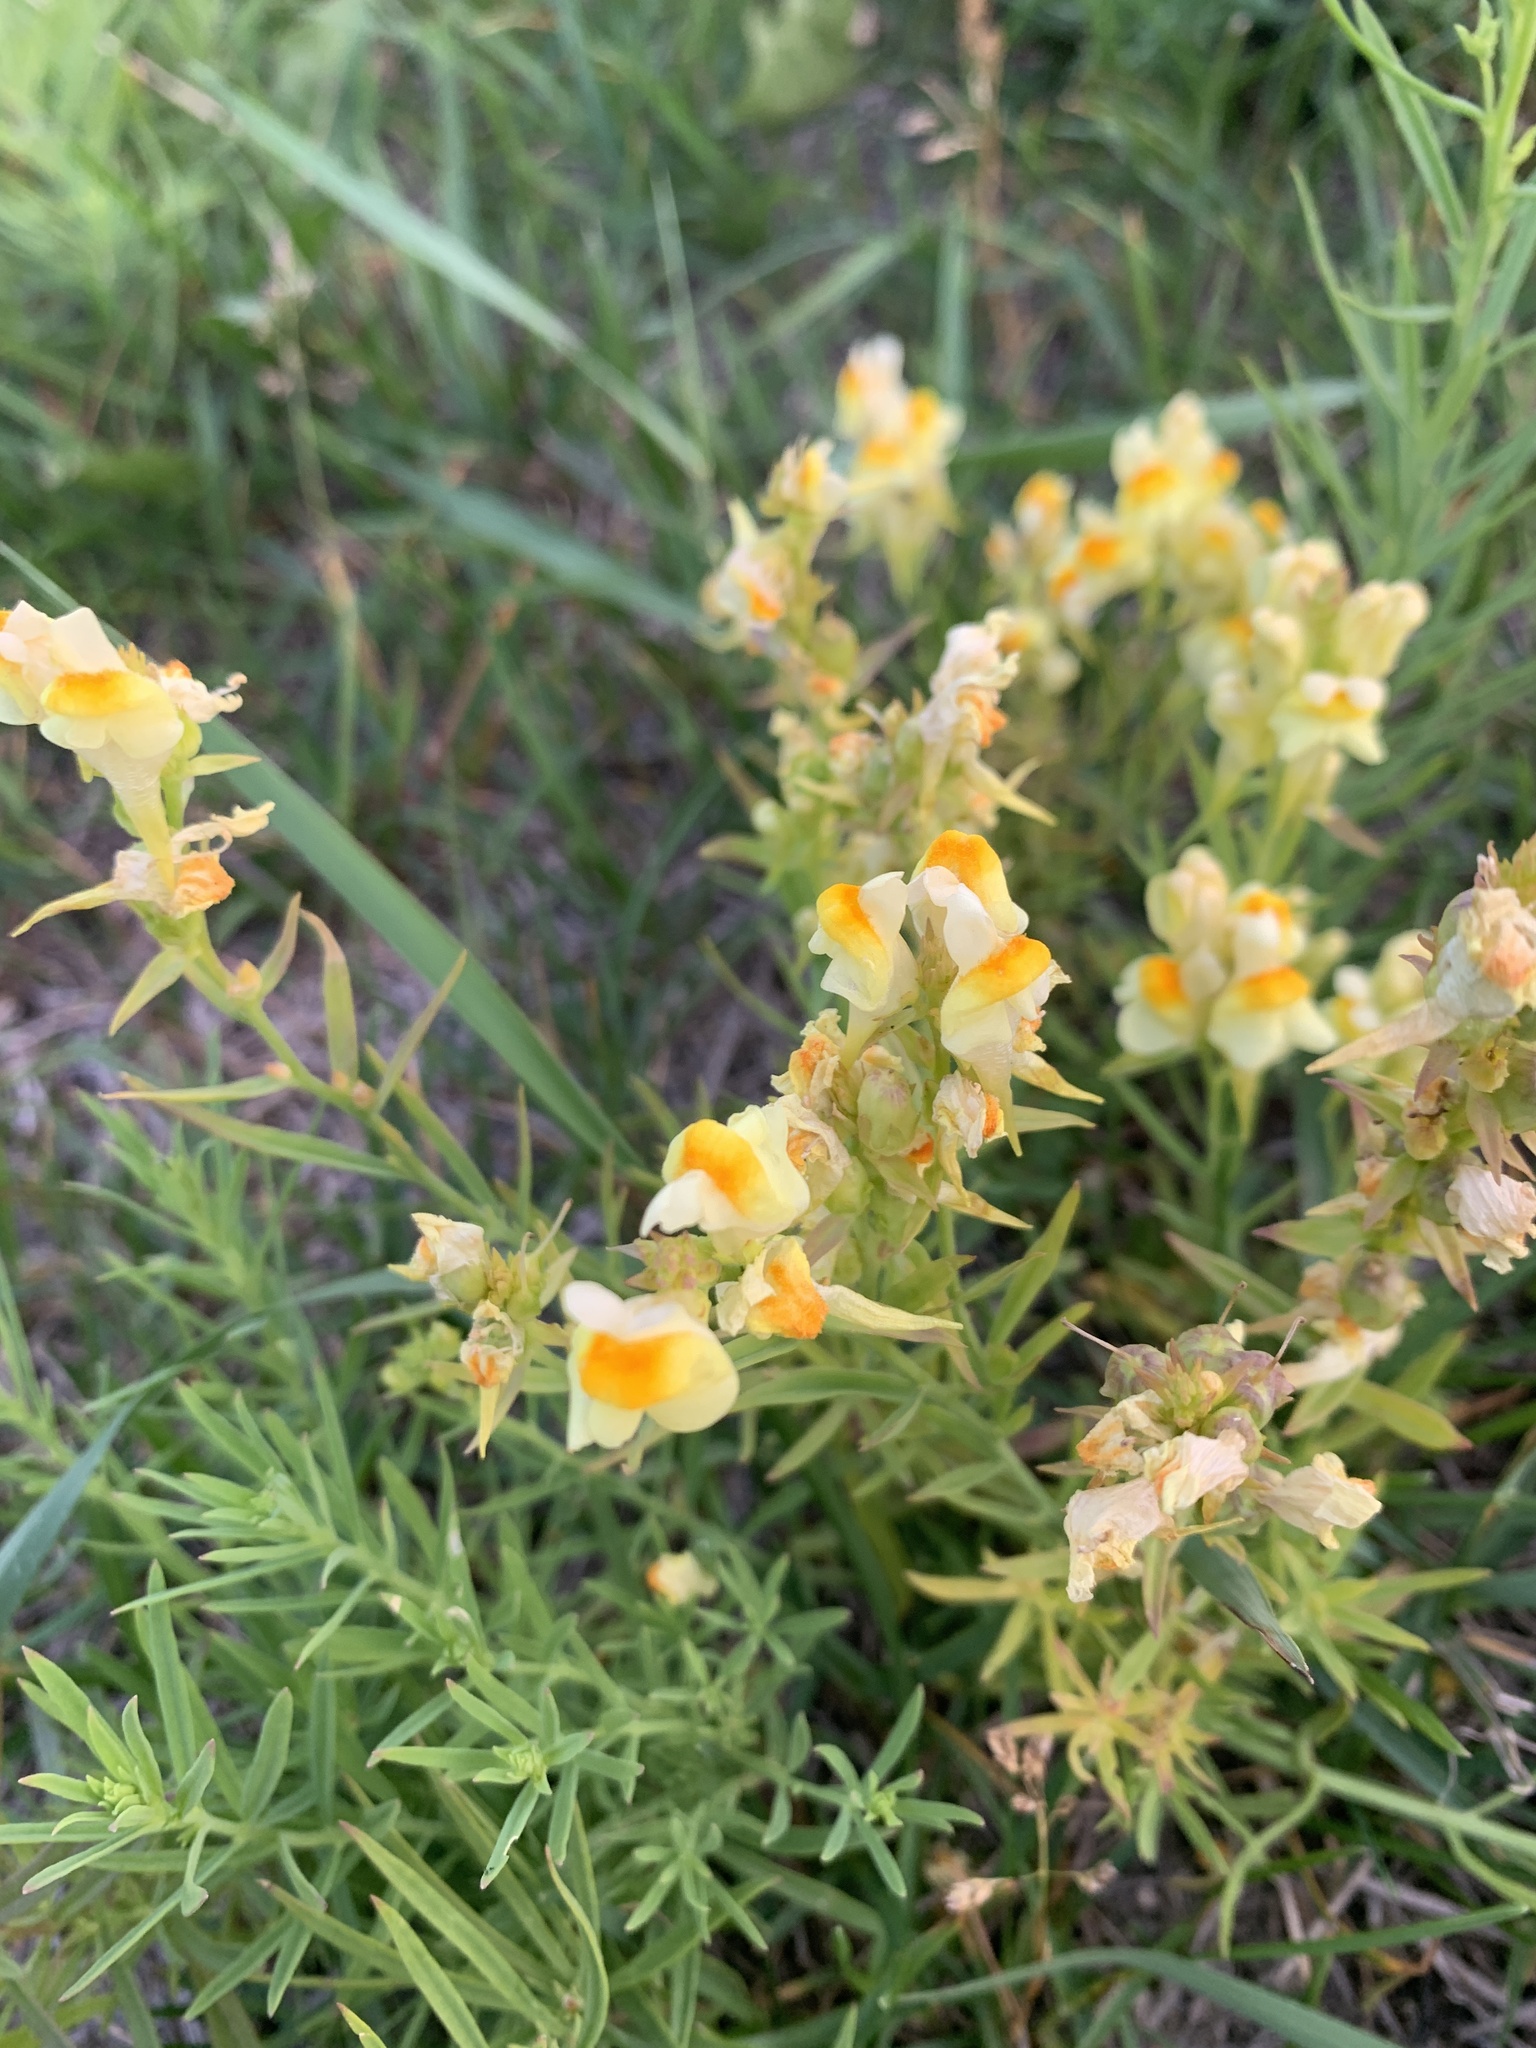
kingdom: Plantae
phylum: Tracheophyta
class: Magnoliopsida
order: Lamiales
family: Plantaginaceae
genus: Linaria
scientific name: Linaria vulgaris
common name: Butter and eggs
